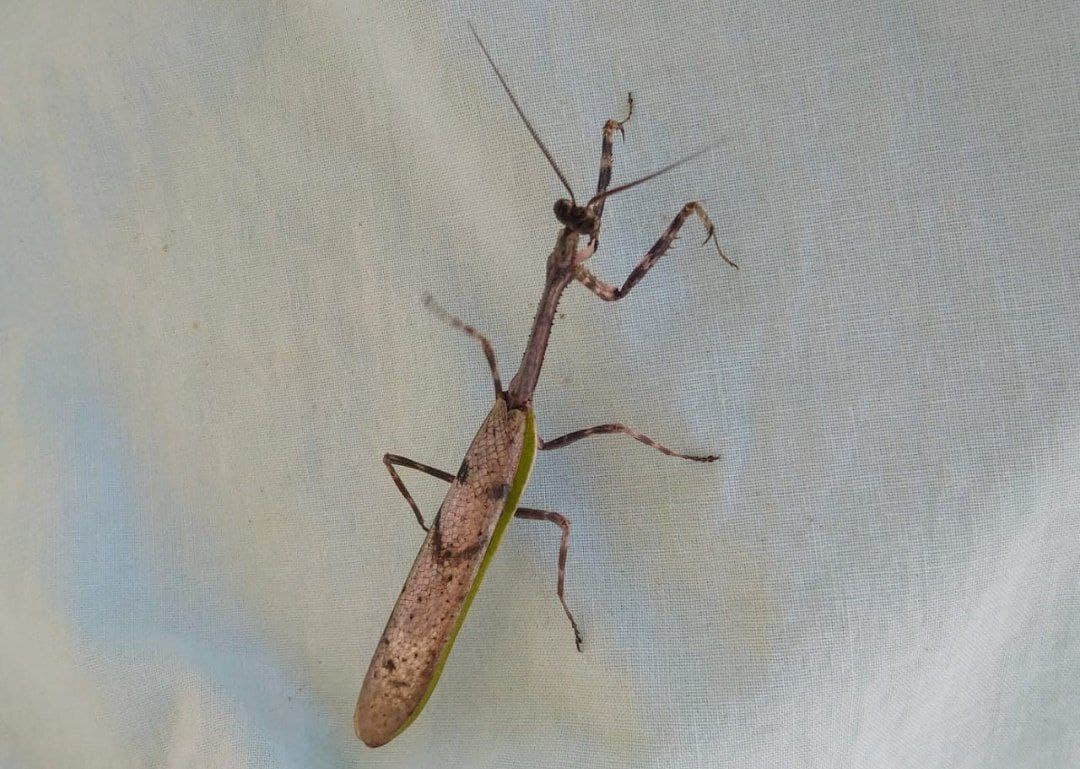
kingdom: Animalia
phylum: Arthropoda
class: Insecta
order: Mantodea
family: Mantidae
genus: Pseudovates
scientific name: Pseudovates iheringi
